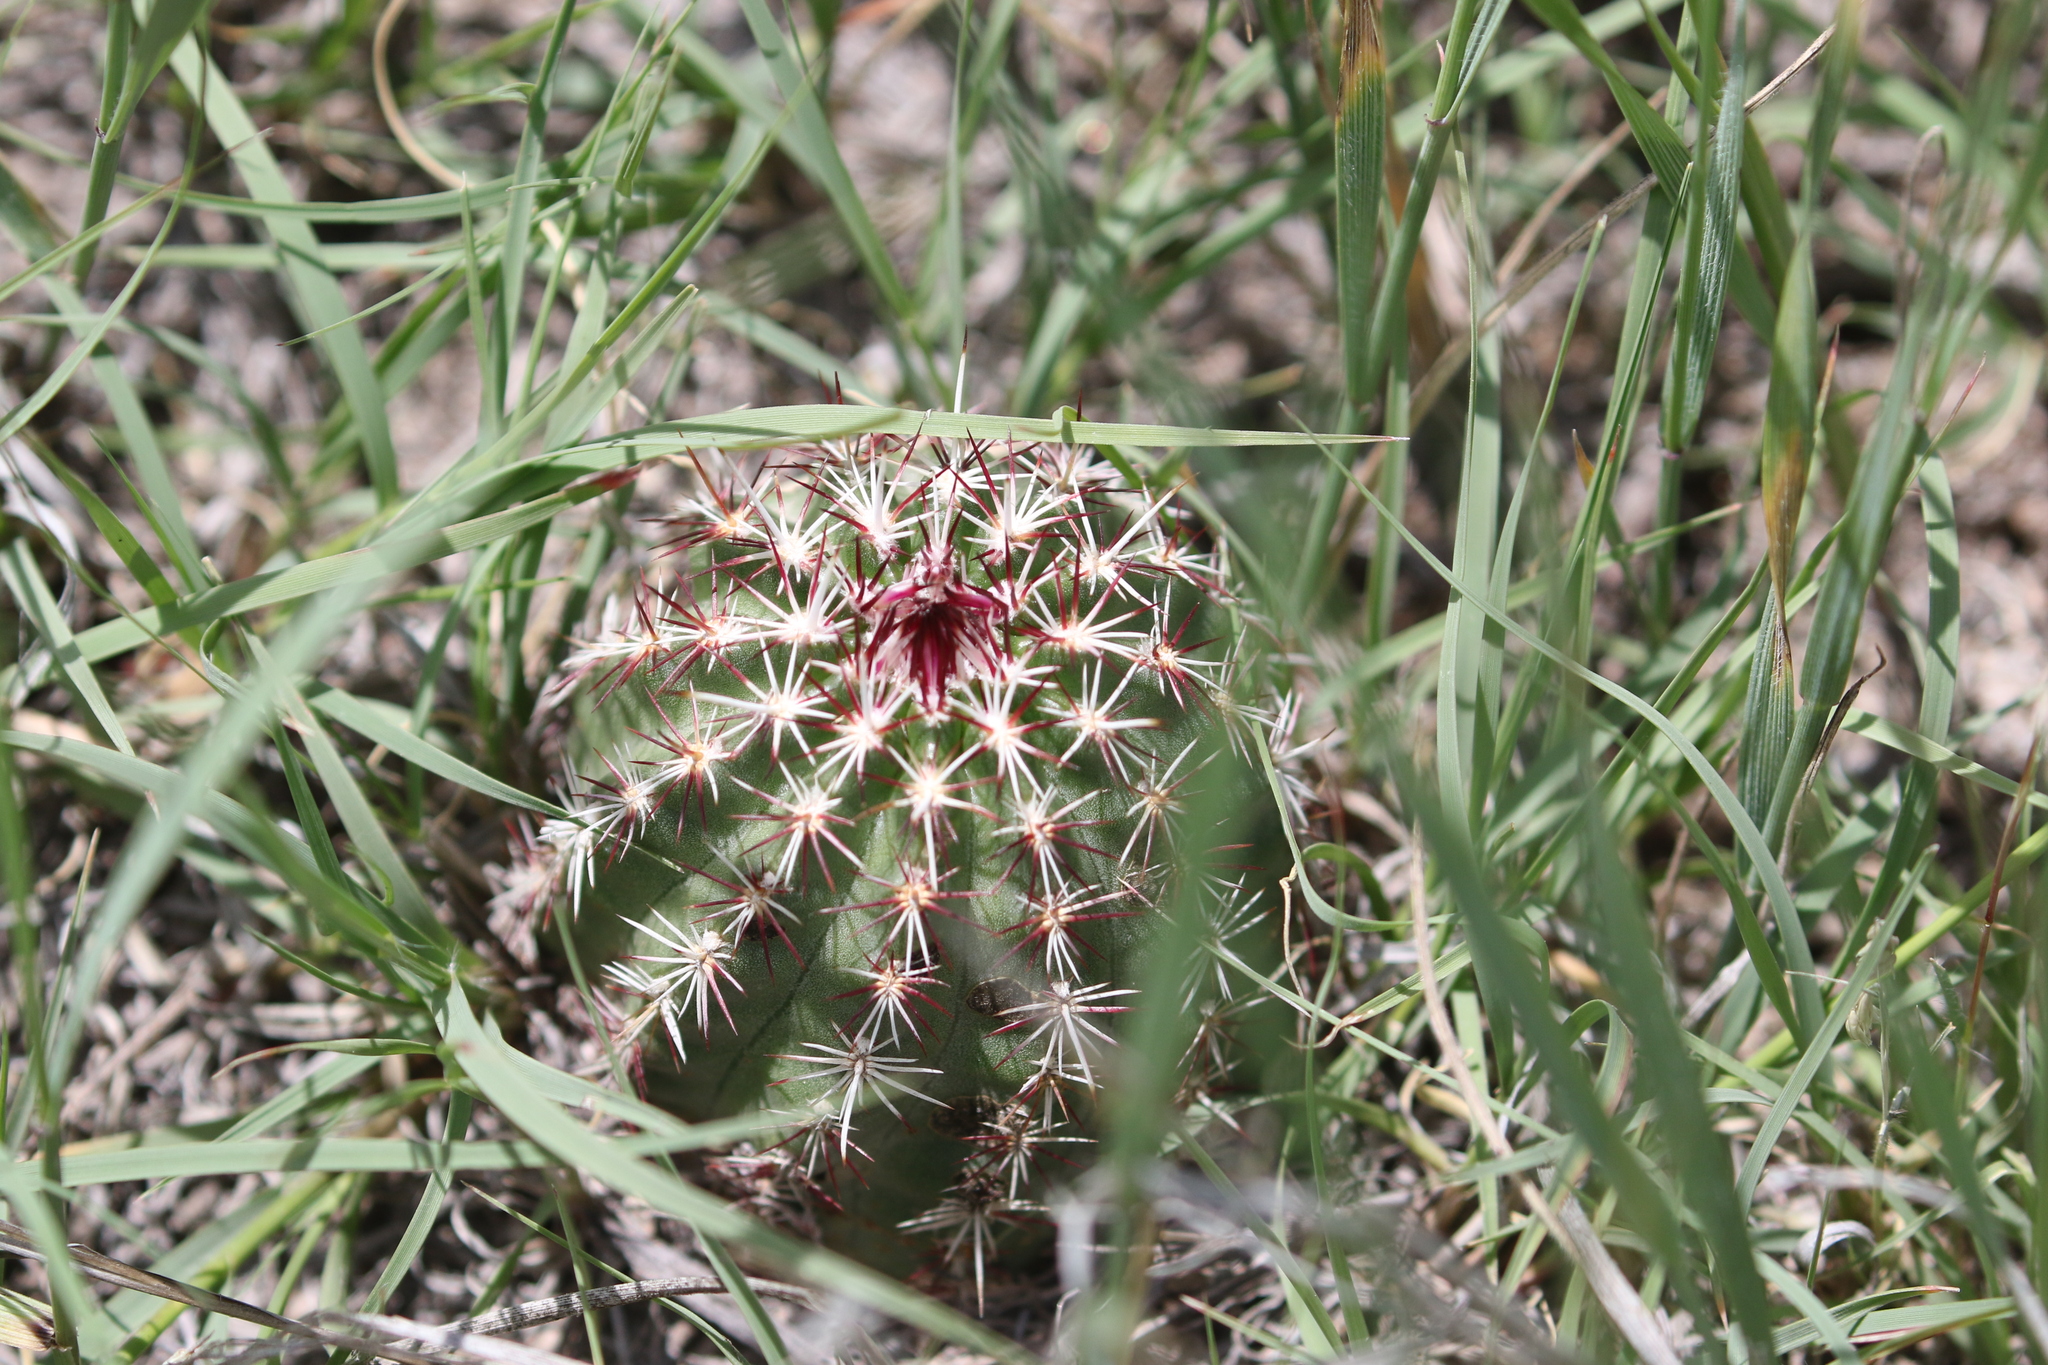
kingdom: Plantae
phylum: Tracheophyta
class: Magnoliopsida
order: Caryophyllales
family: Cactaceae
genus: Echinocereus
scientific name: Echinocereus viridiflorus
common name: Nylon hedgehog cactus
